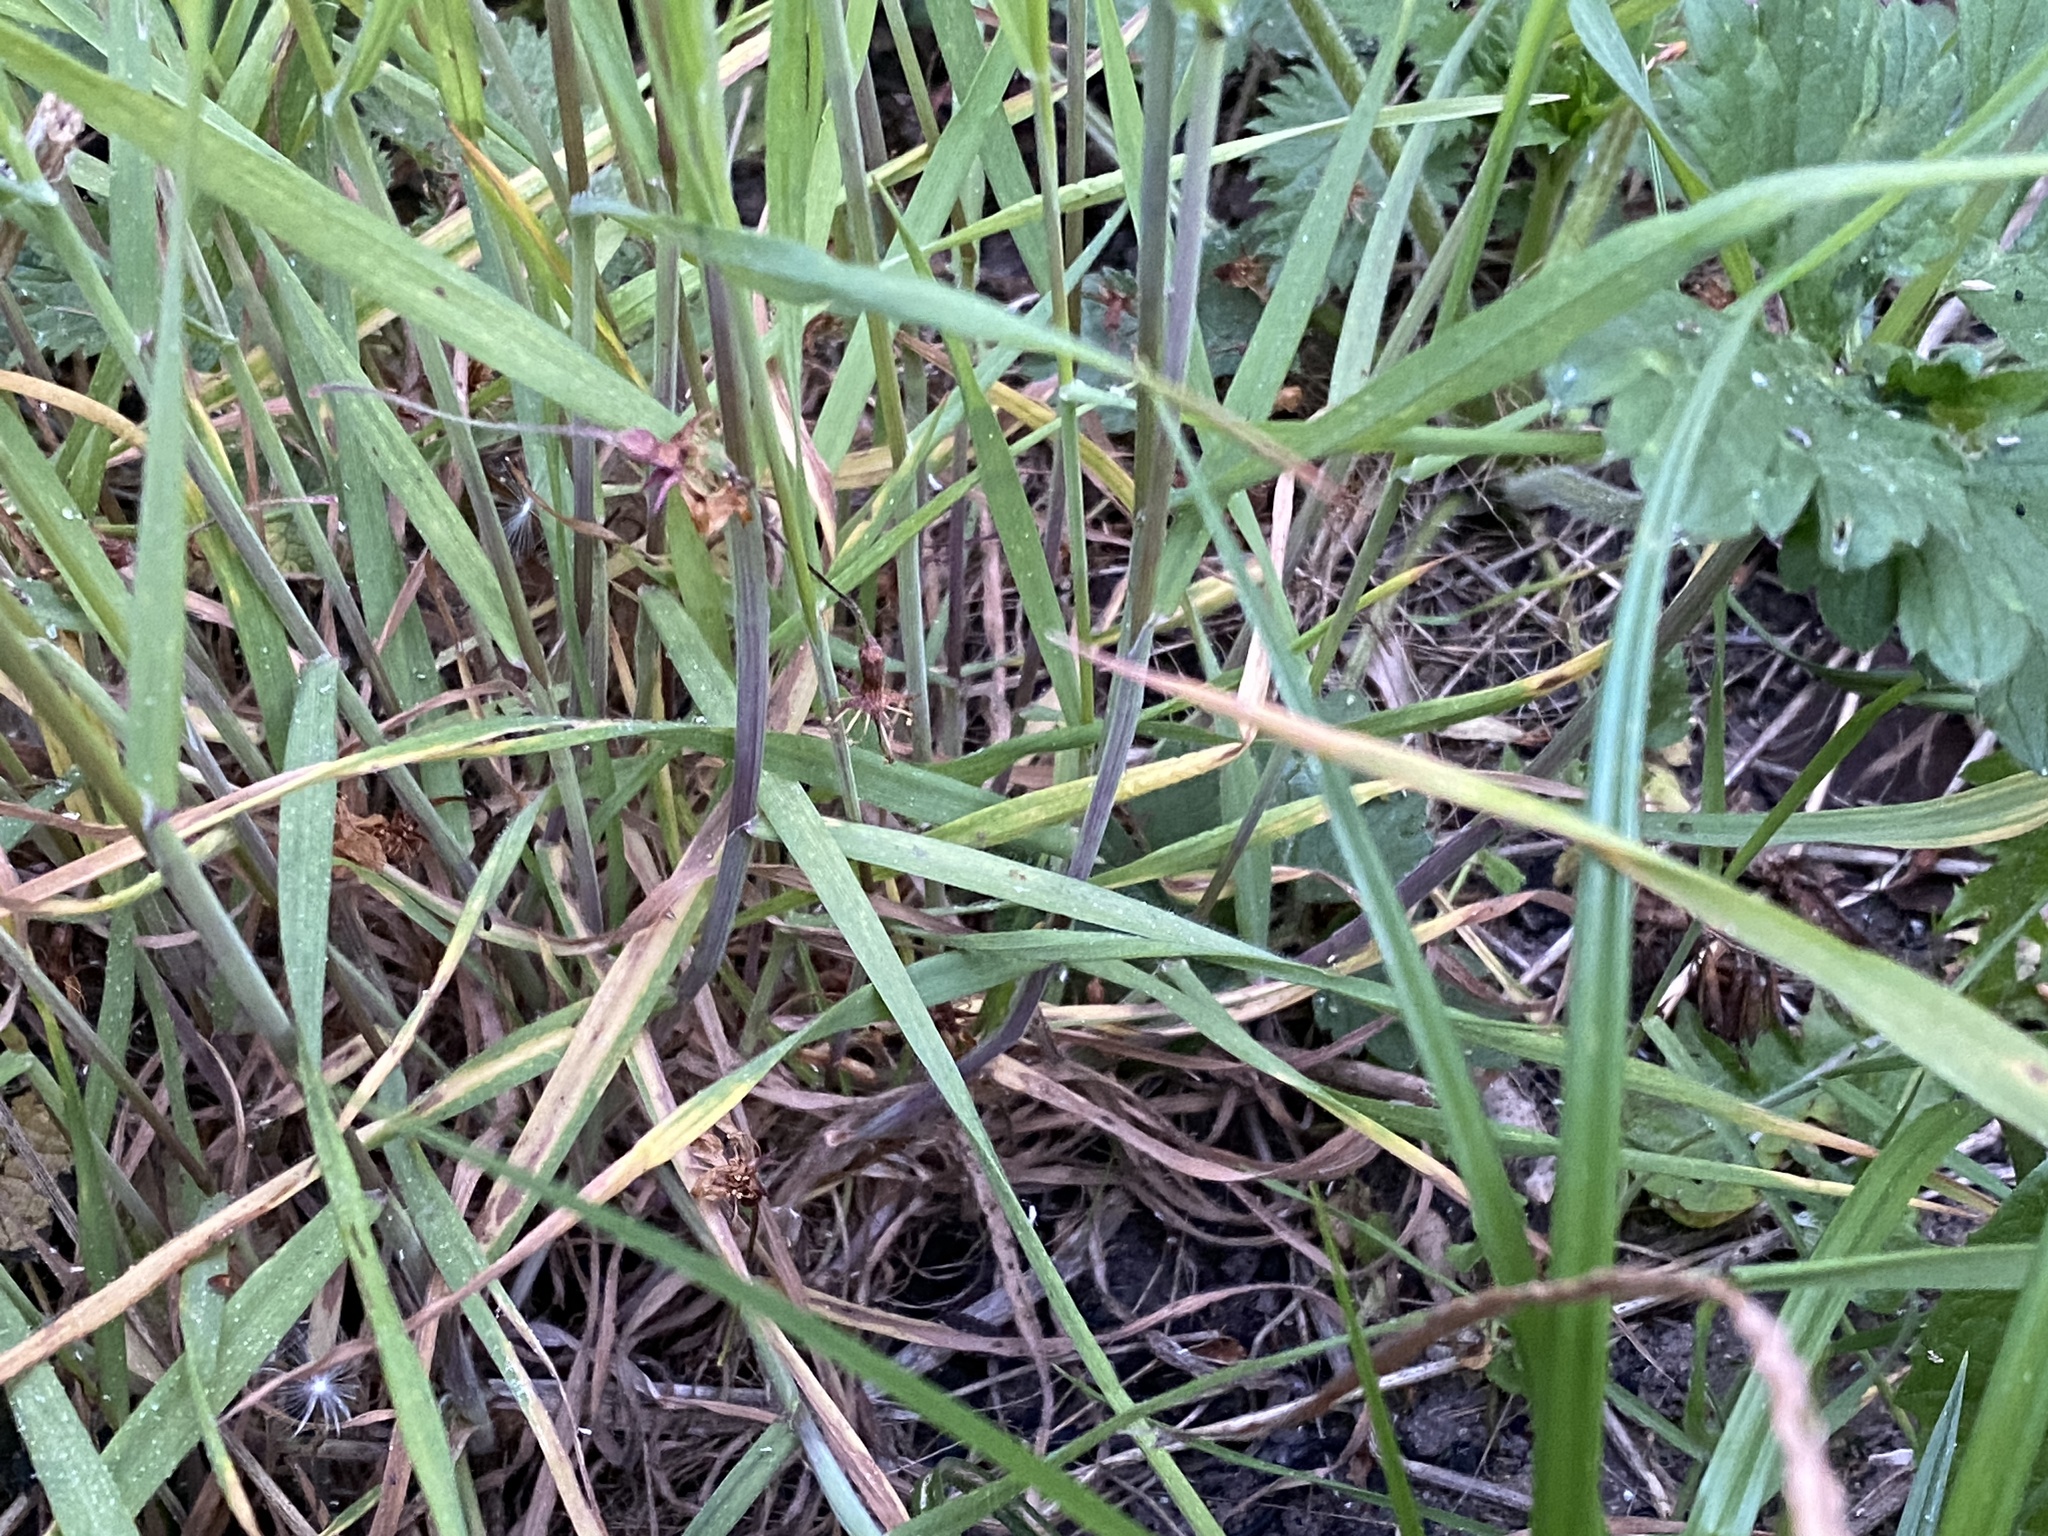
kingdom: Plantae
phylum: Tracheophyta
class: Liliopsida
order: Poales
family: Poaceae
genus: Bromus
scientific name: Bromus sterilis
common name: Poverty brome
